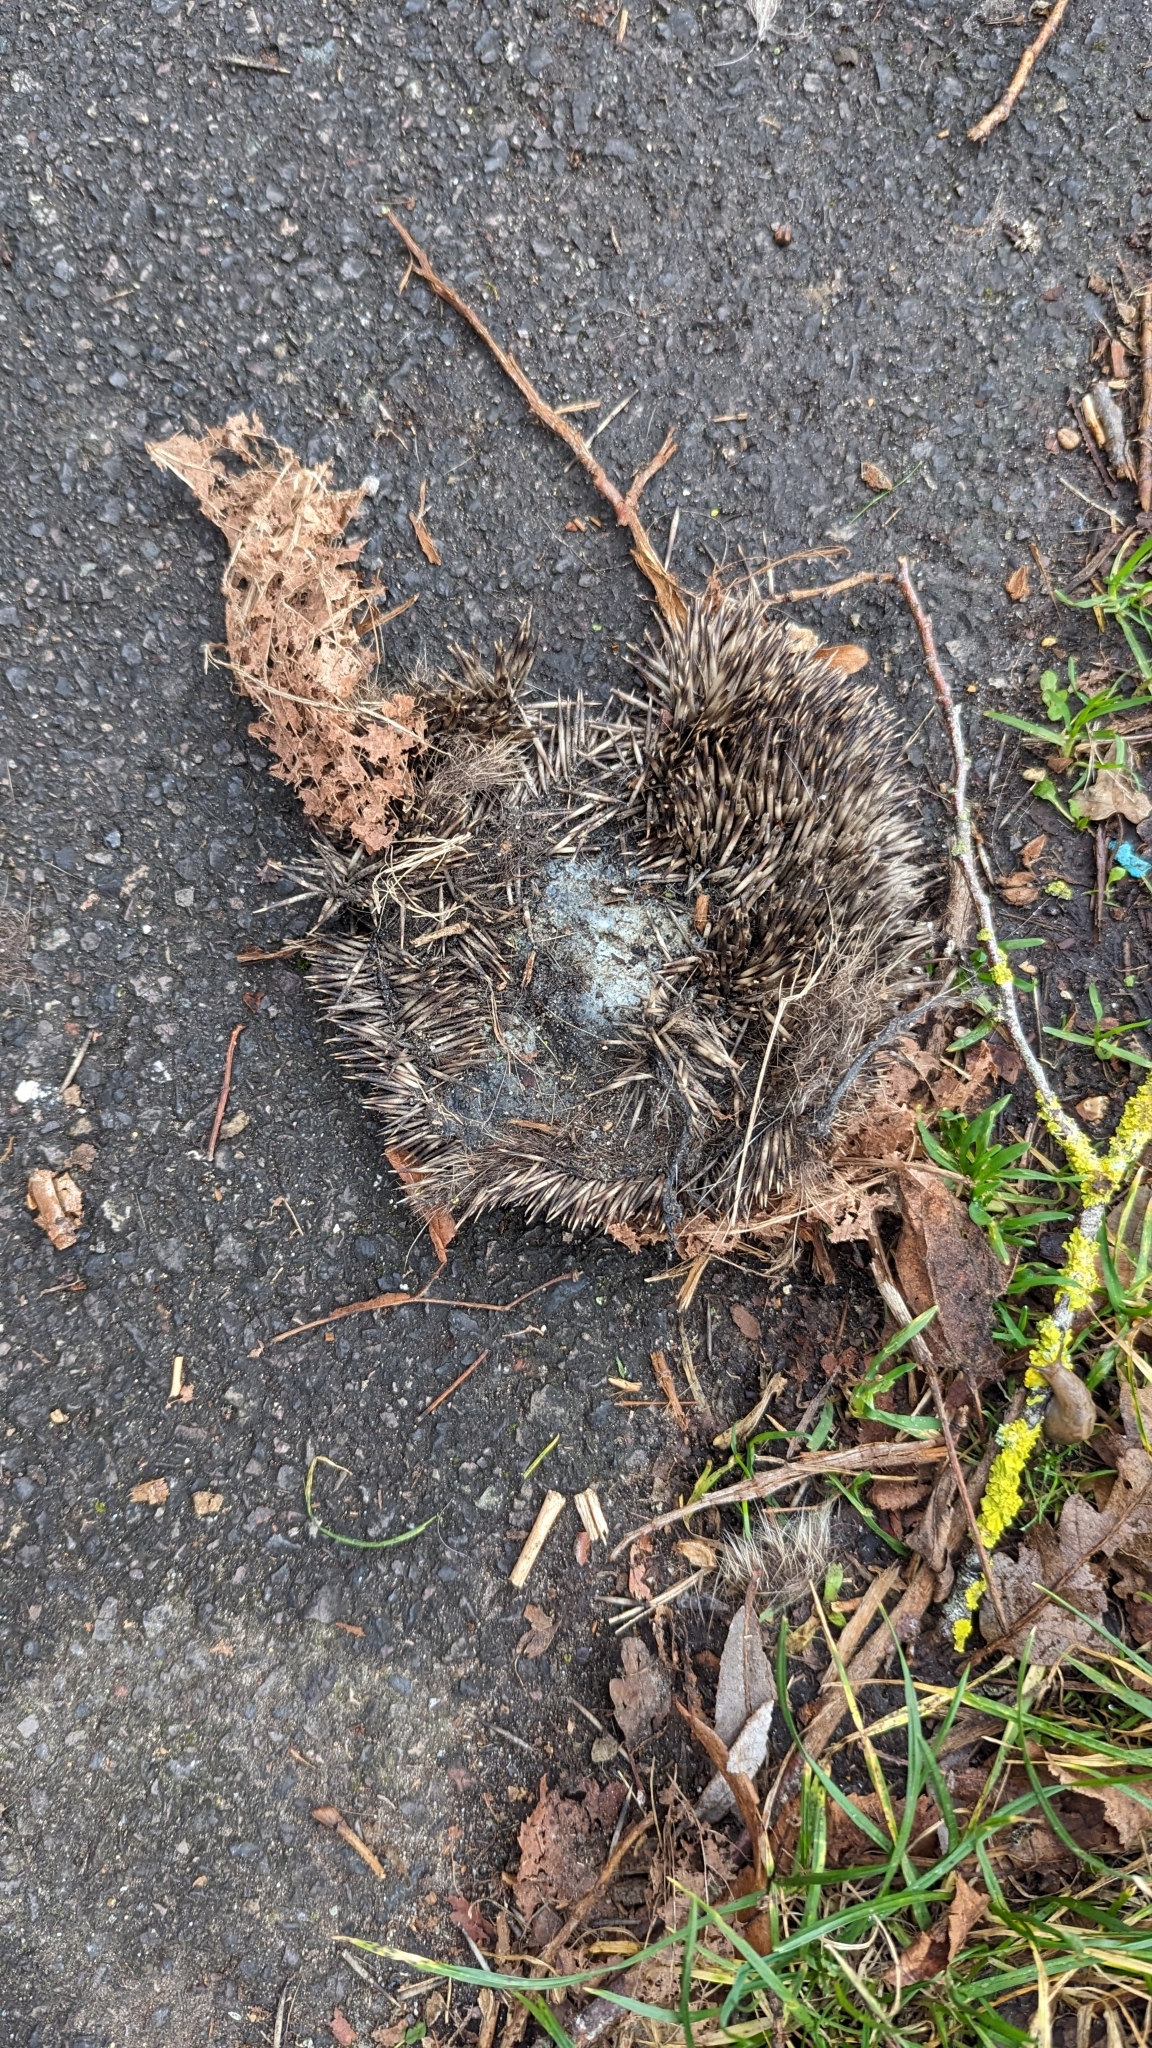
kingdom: Animalia
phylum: Chordata
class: Mammalia
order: Erinaceomorpha
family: Erinaceidae
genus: Erinaceus
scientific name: Erinaceus europaeus
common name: West european hedgehog
